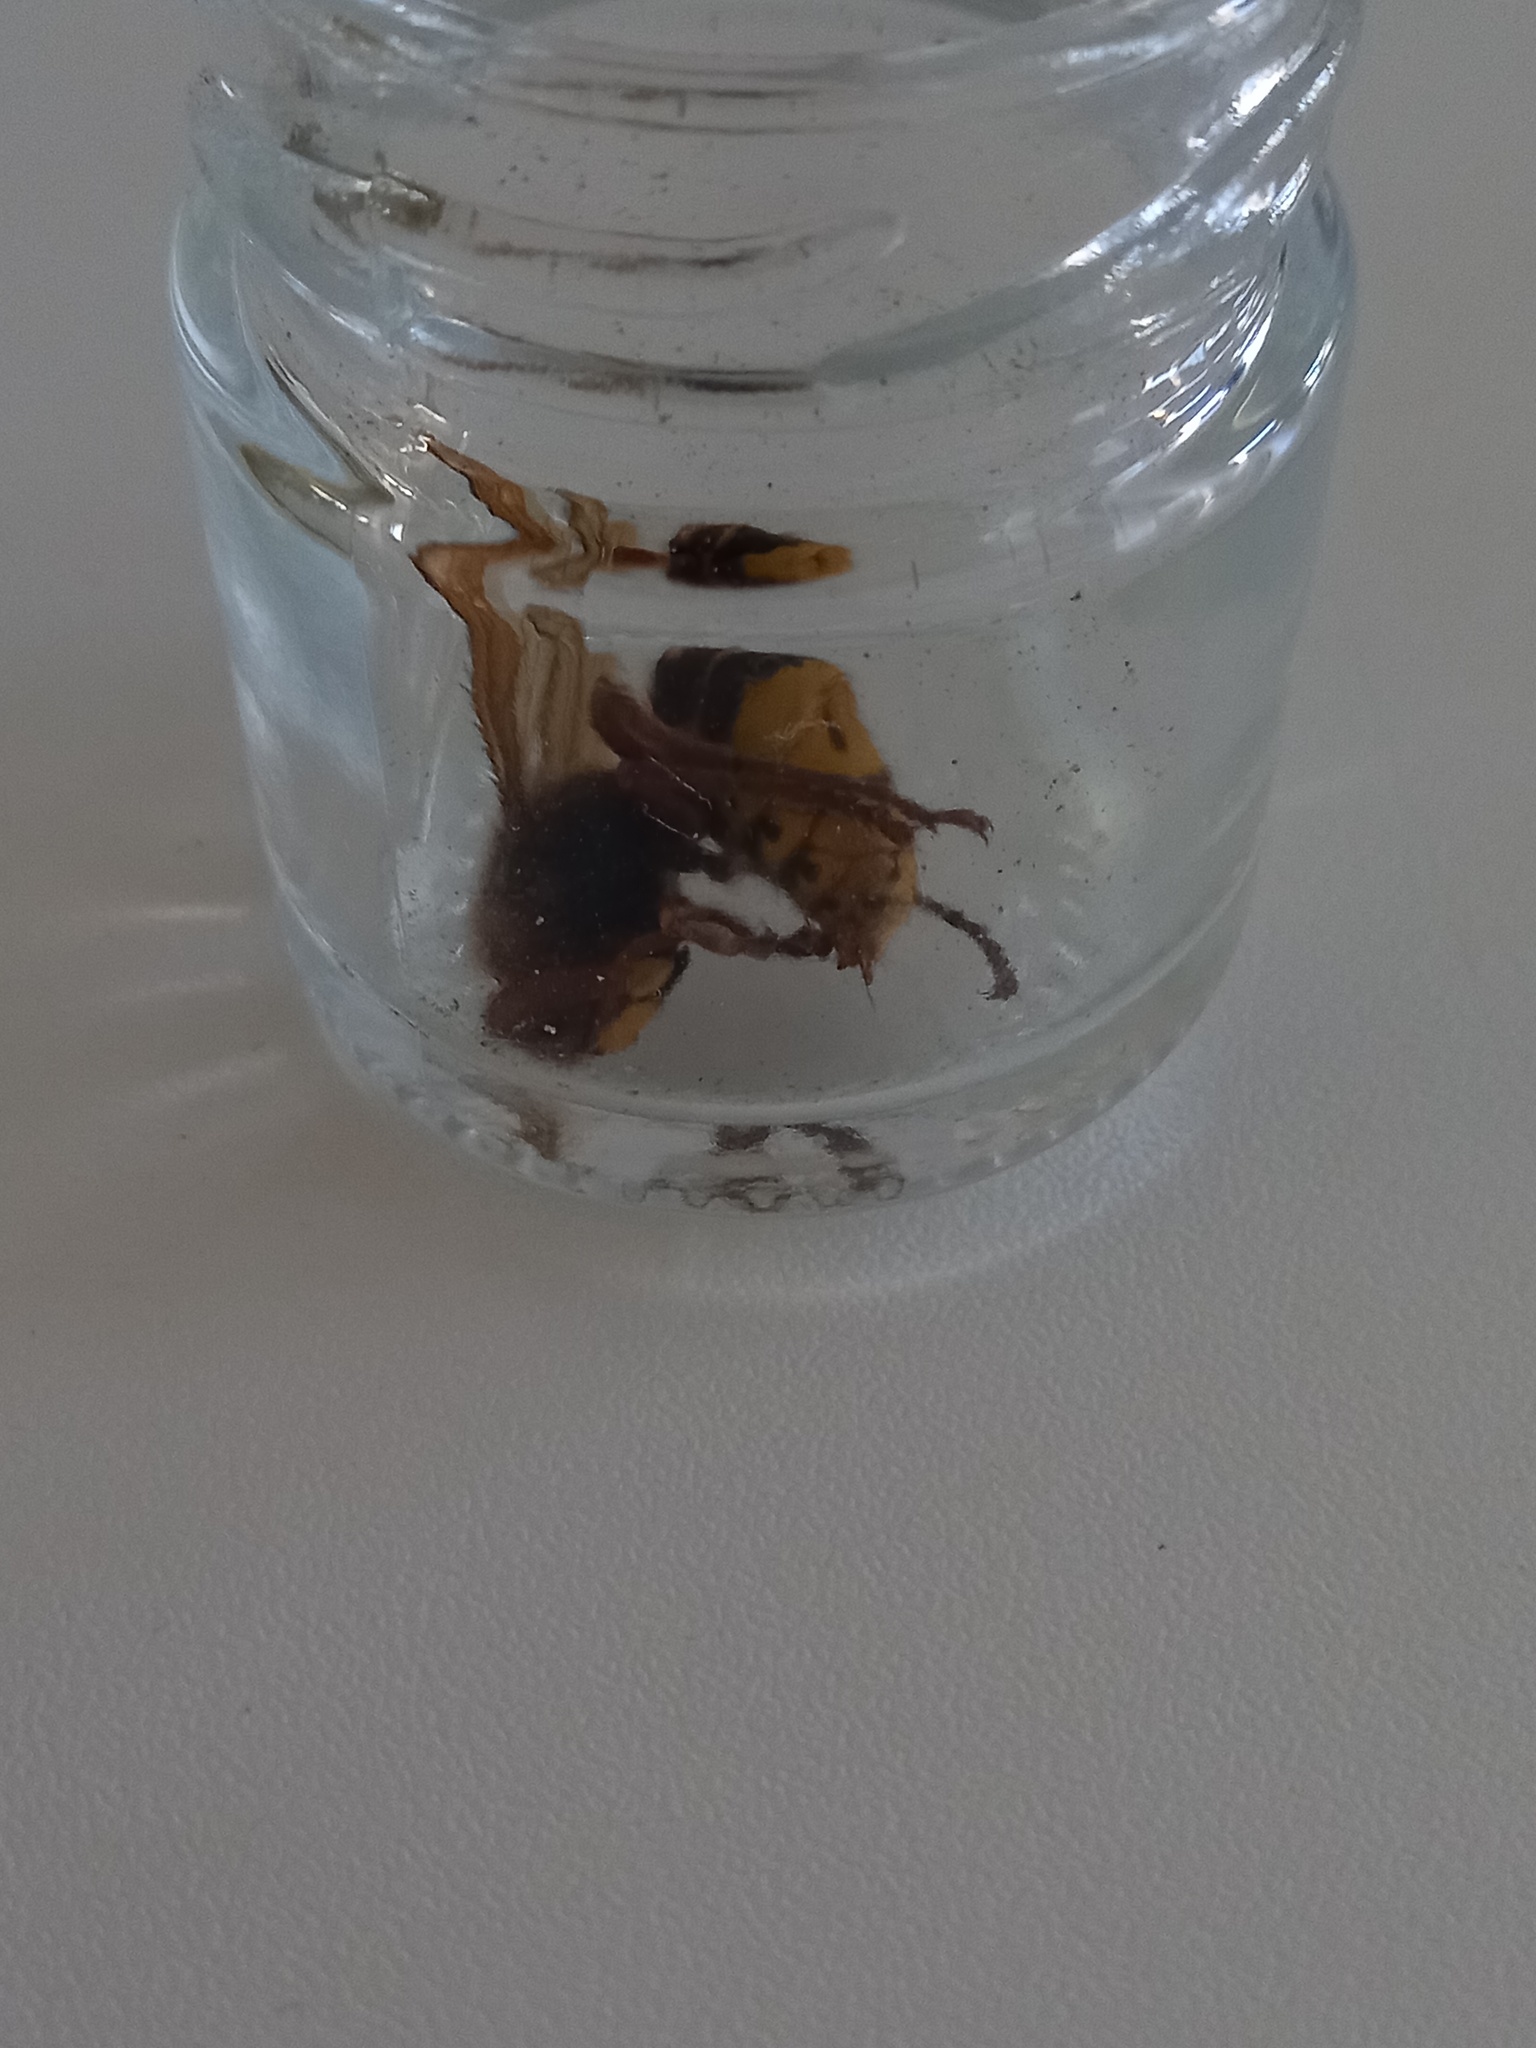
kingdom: Animalia
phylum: Arthropoda
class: Insecta
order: Hymenoptera
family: Vespidae
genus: Vespa
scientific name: Vespa crabro
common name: Hornet
